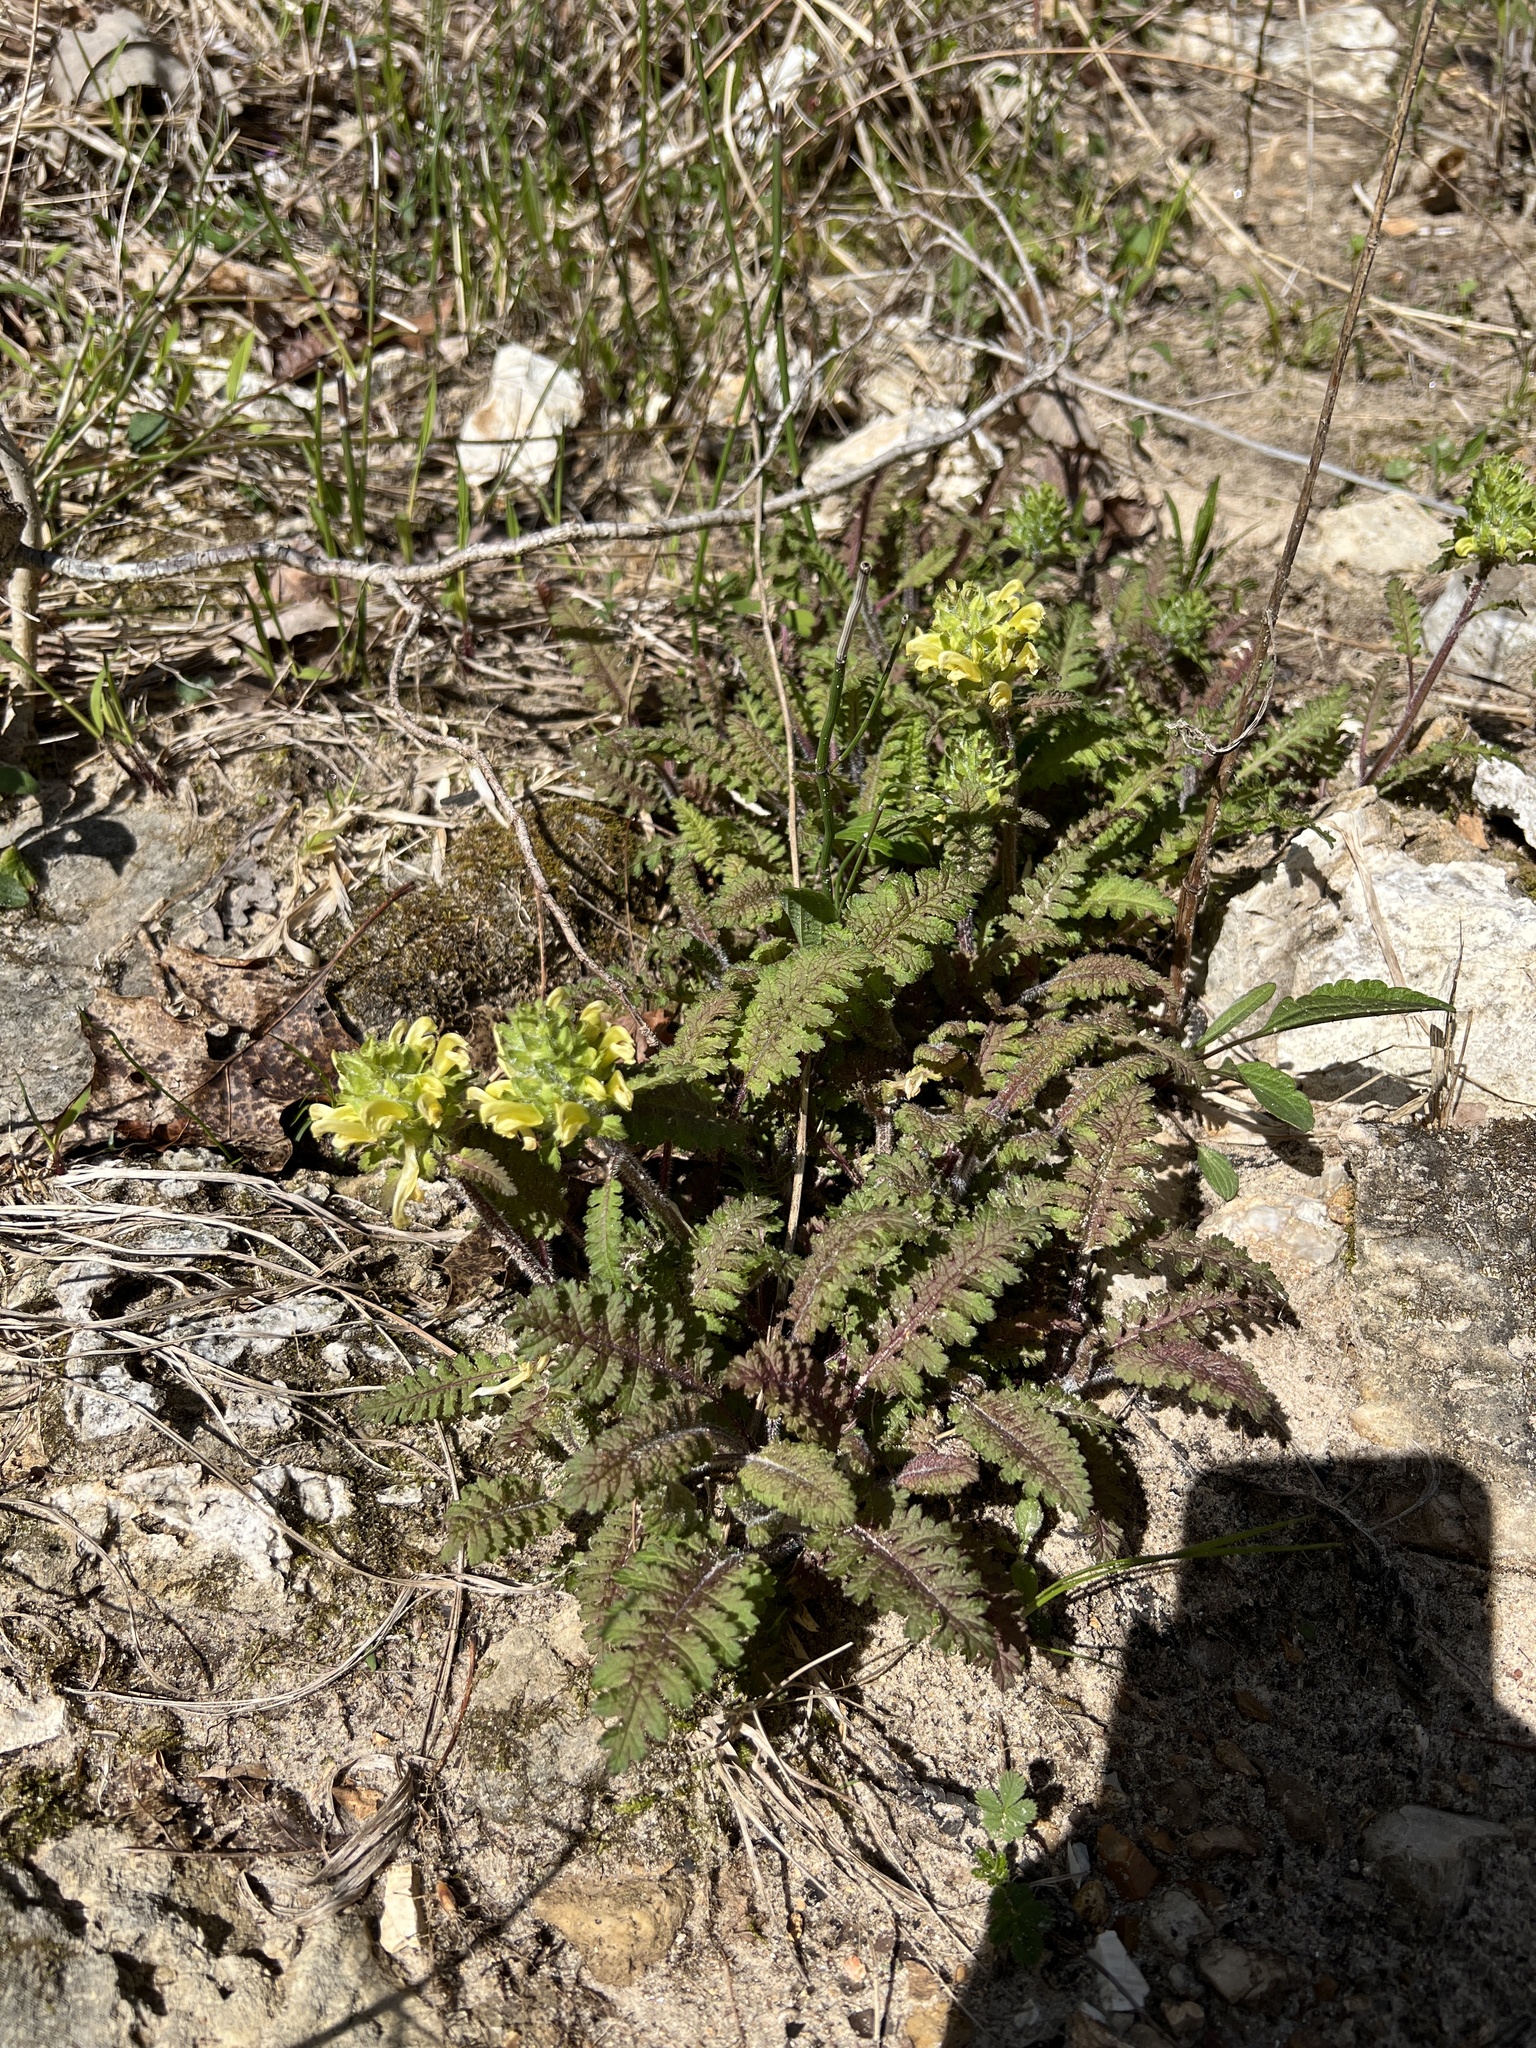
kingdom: Plantae
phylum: Tracheophyta
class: Magnoliopsida
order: Lamiales
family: Orobanchaceae
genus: Pedicularis
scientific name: Pedicularis canadensis
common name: Early lousewort
